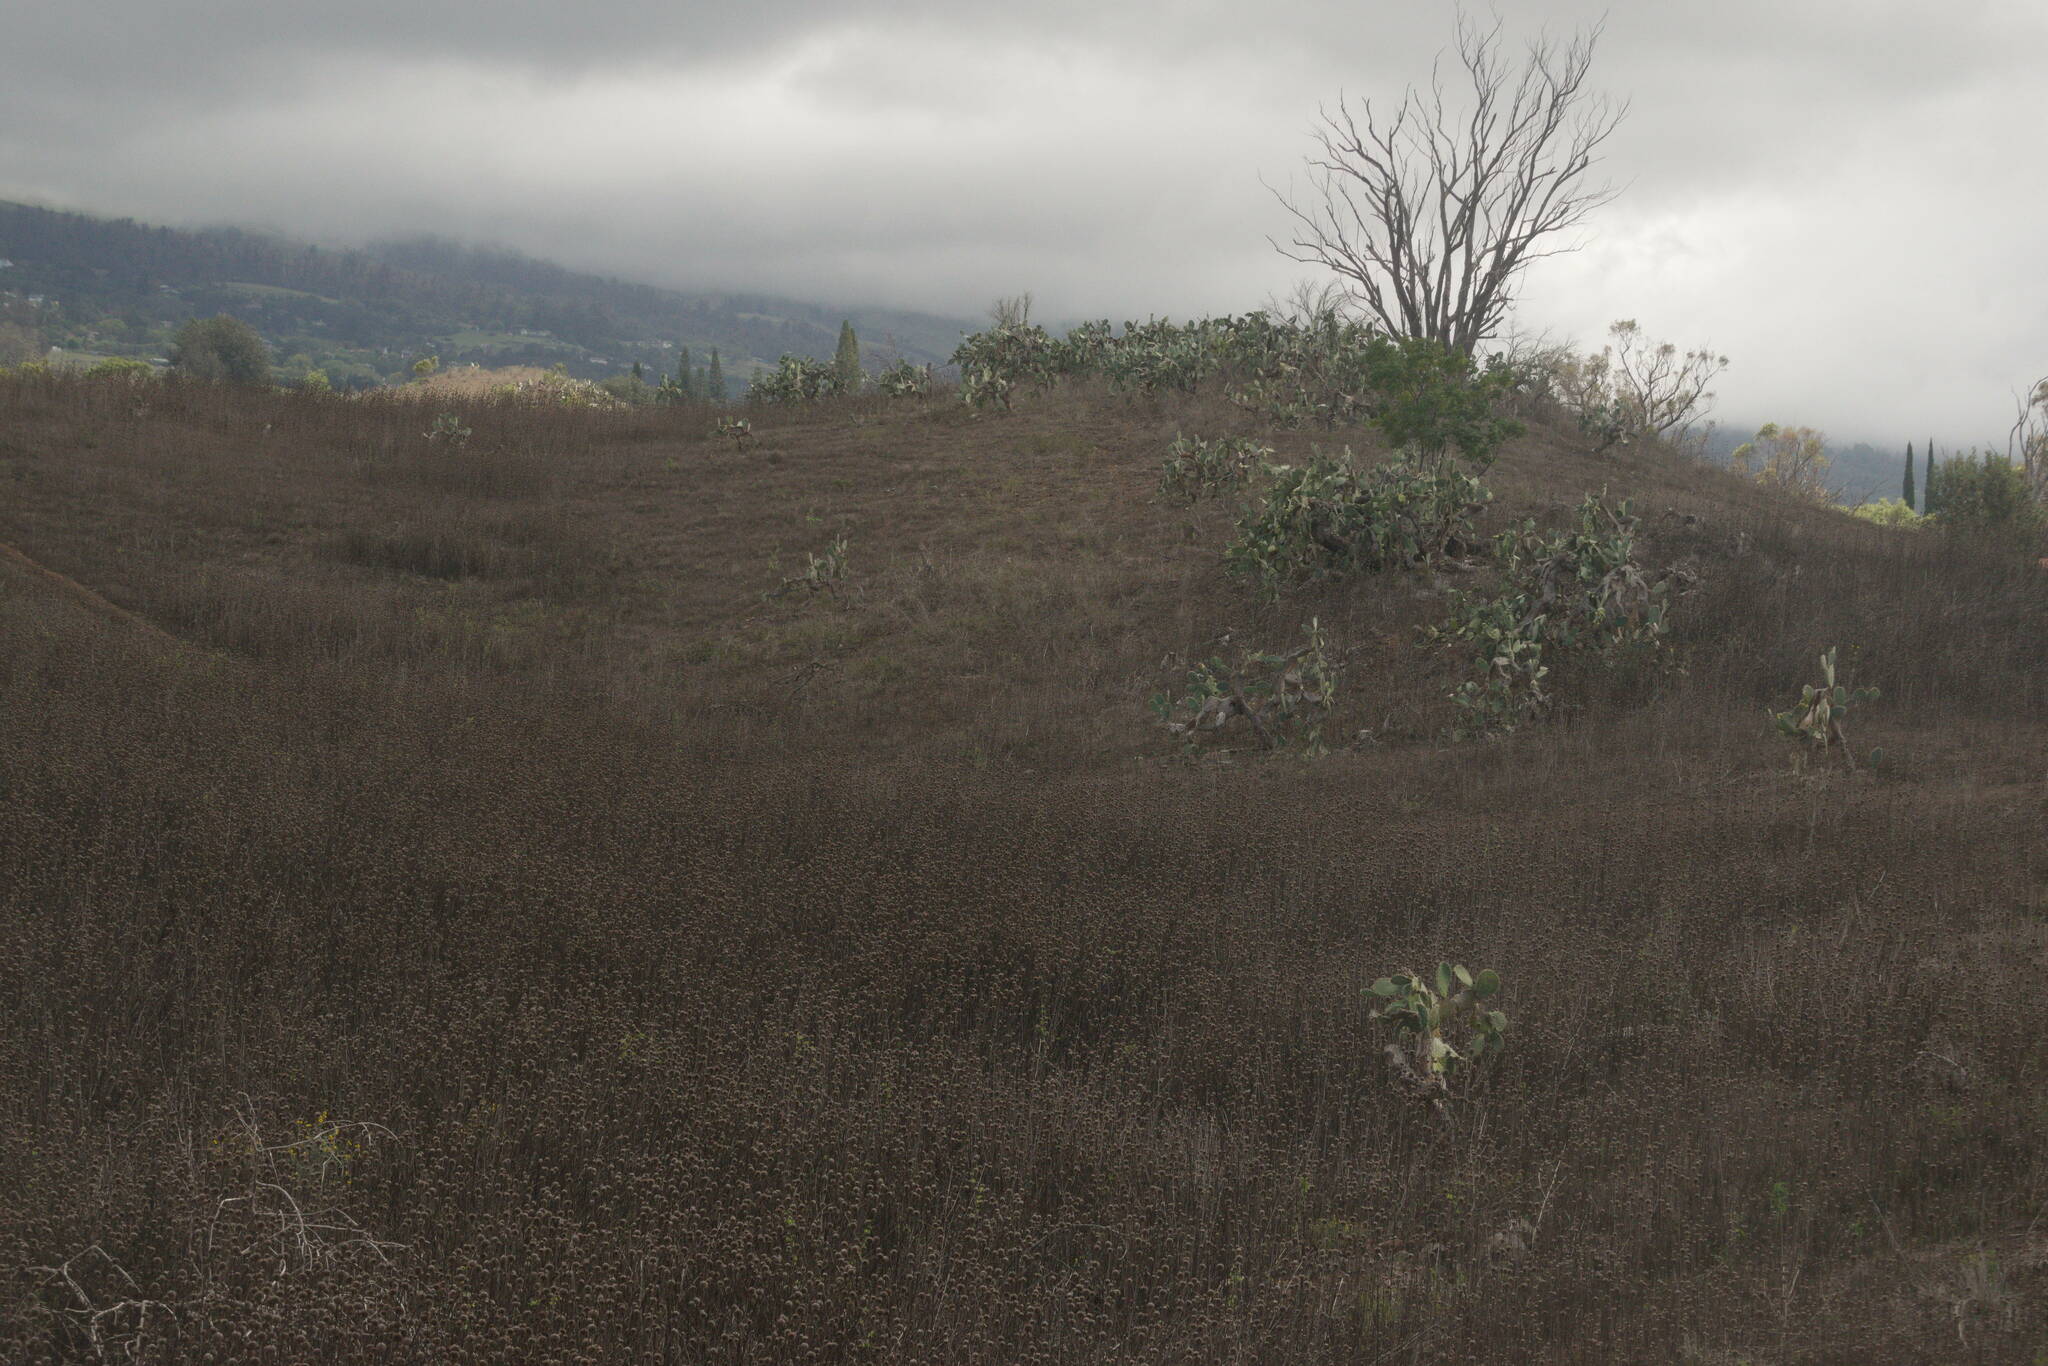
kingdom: Plantae
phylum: Tracheophyta
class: Magnoliopsida
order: Lamiales
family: Lamiaceae
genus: Leonotis
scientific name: Leonotis nepetifolia
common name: Christmas candlestick
